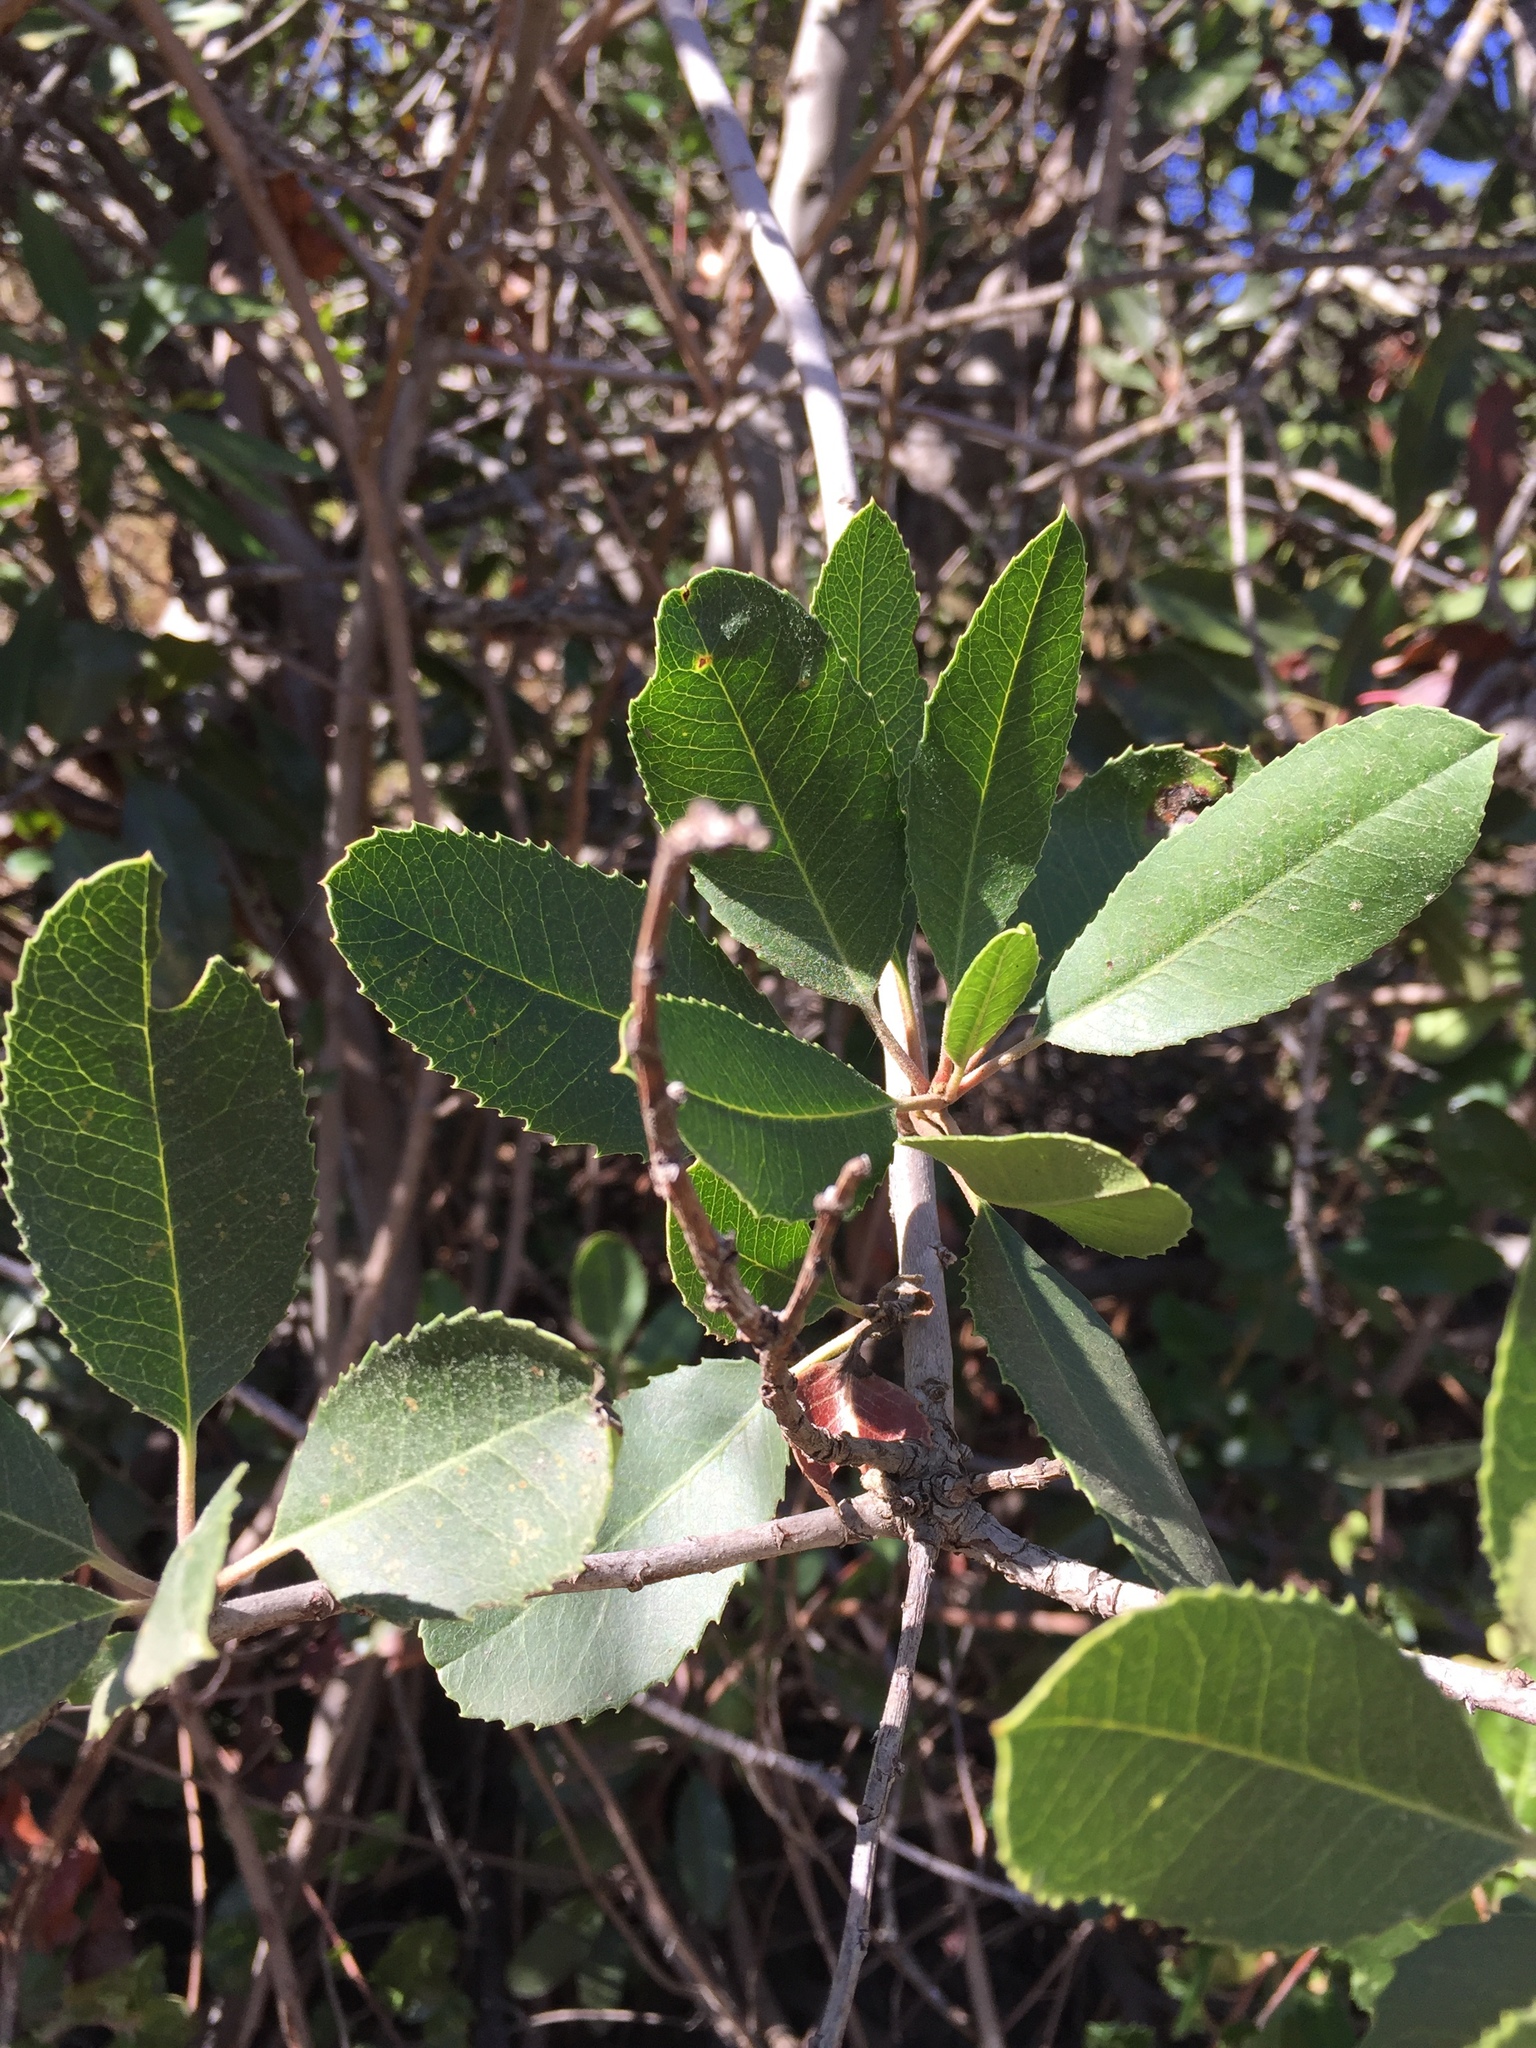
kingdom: Plantae
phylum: Tracheophyta
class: Magnoliopsida
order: Rosales
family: Rosaceae
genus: Heteromeles
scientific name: Heteromeles arbutifolia
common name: California-holly
